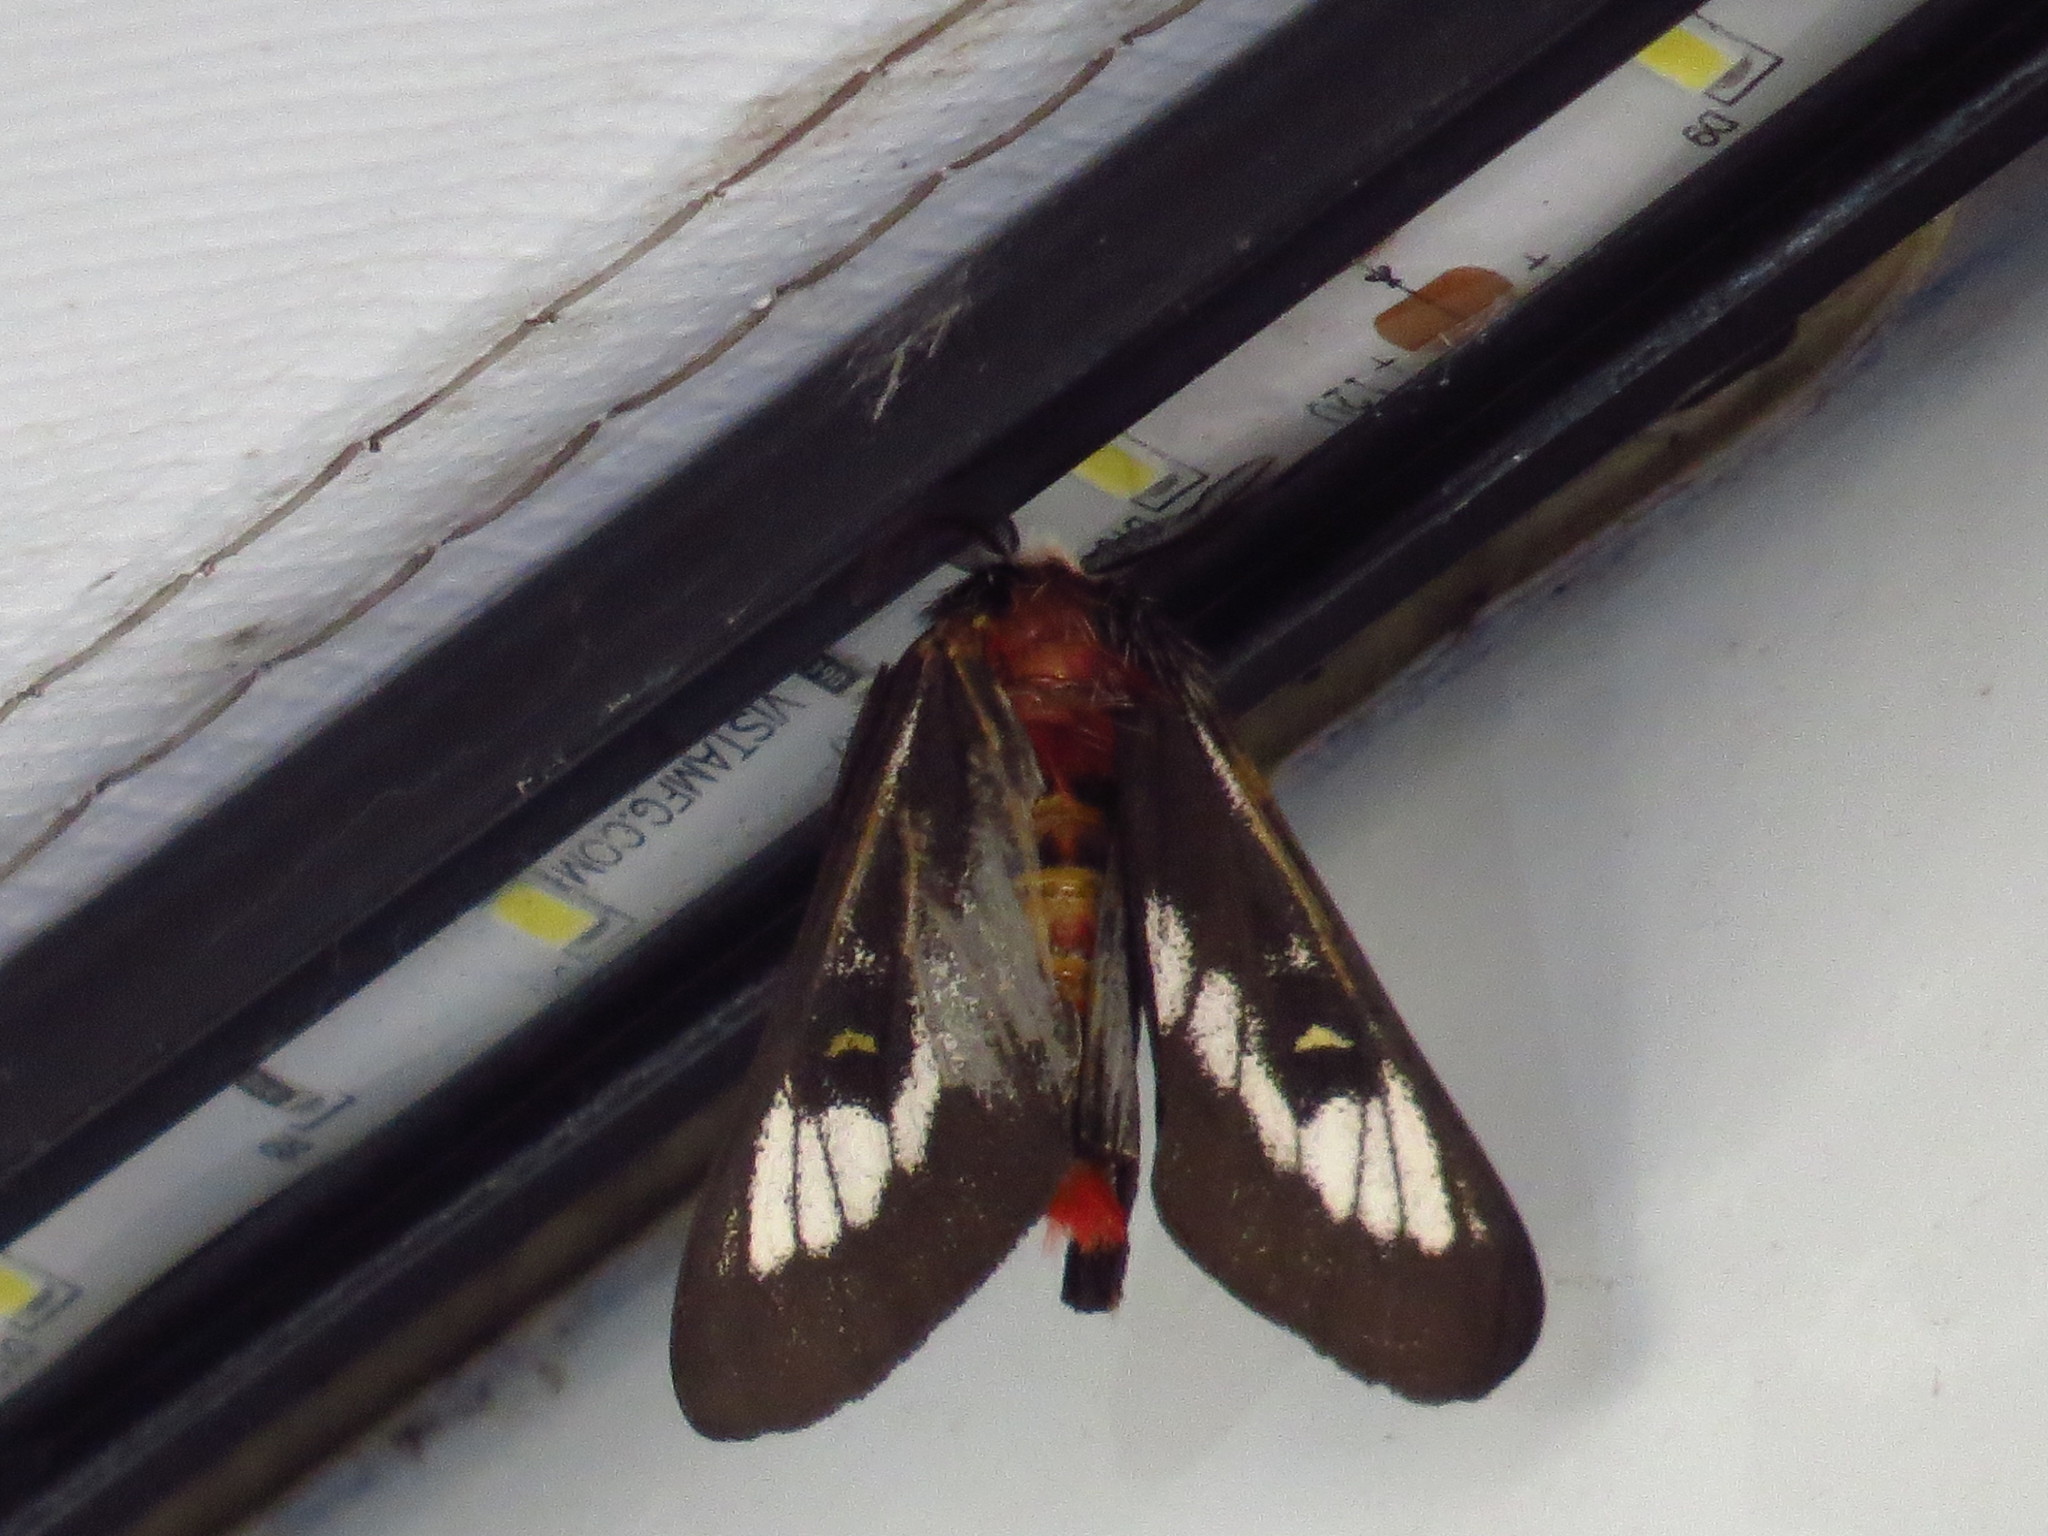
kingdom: Animalia
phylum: Arthropoda
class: Insecta
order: Lepidoptera
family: Saturniidae
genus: Hemileuca
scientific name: Hemileuca juno
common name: Juno buckmoth
